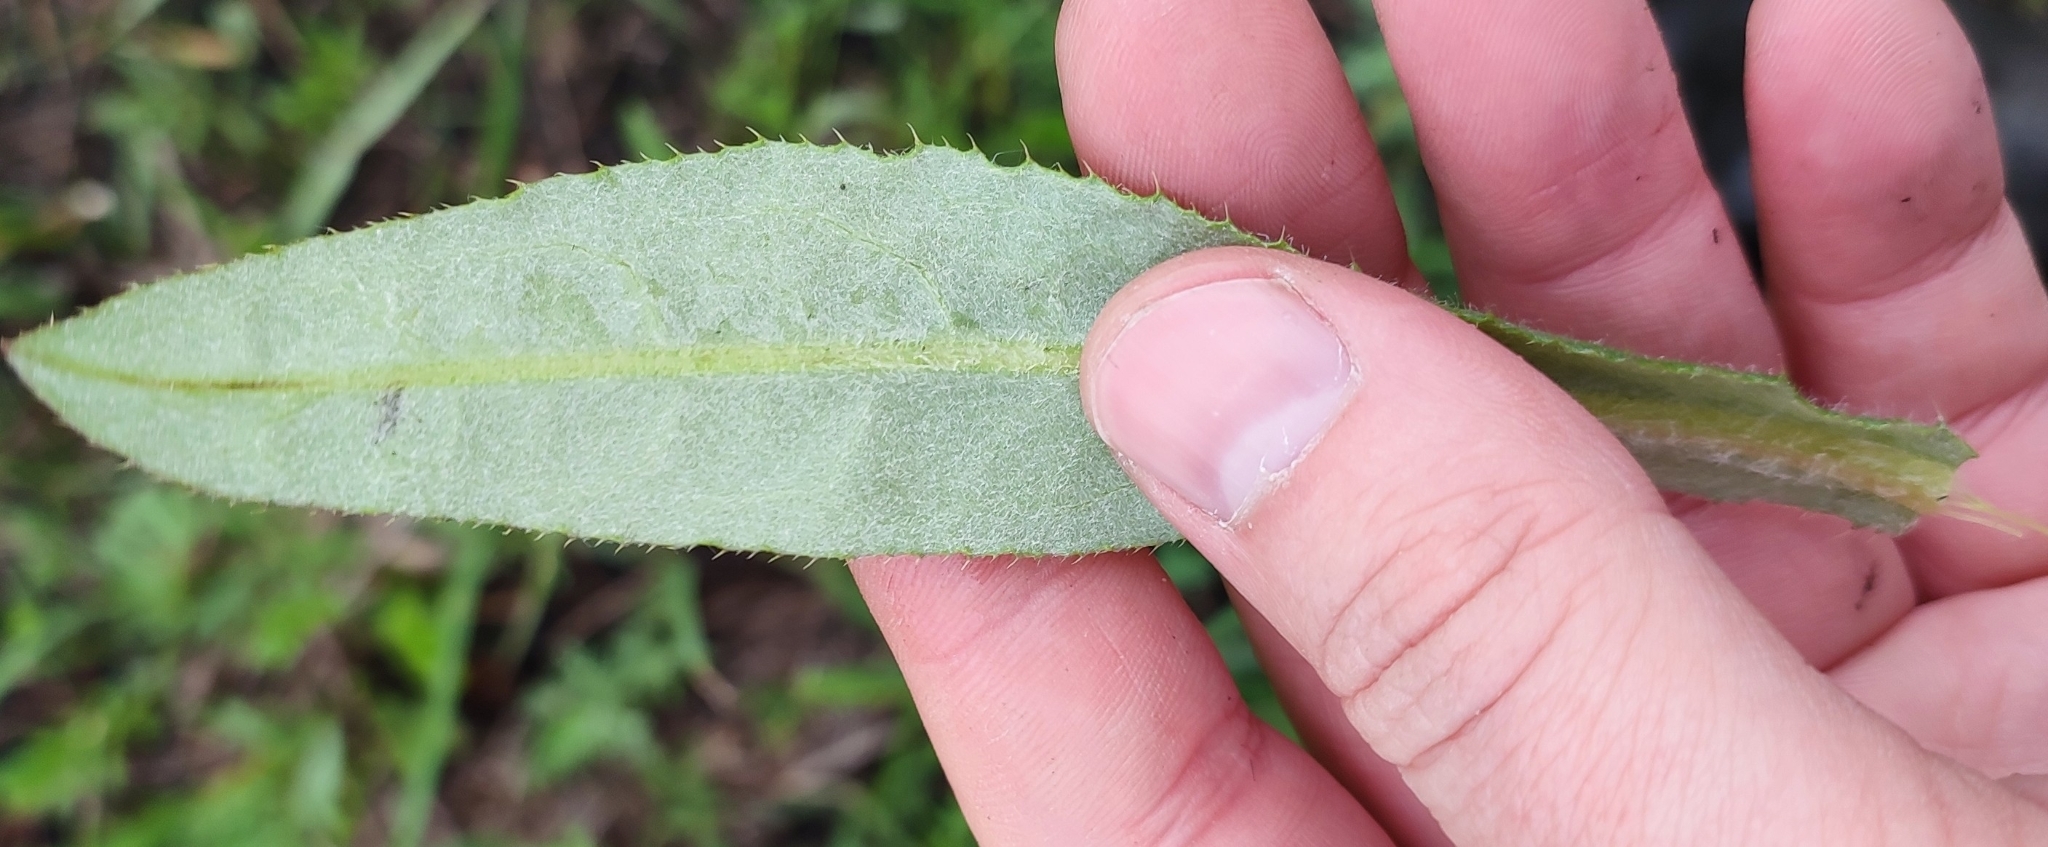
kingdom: Plantae
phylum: Tracheophyta
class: Magnoliopsida
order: Asterales
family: Asteraceae
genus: Cirsium
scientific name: Cirsium arvense
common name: Creeping thistle
